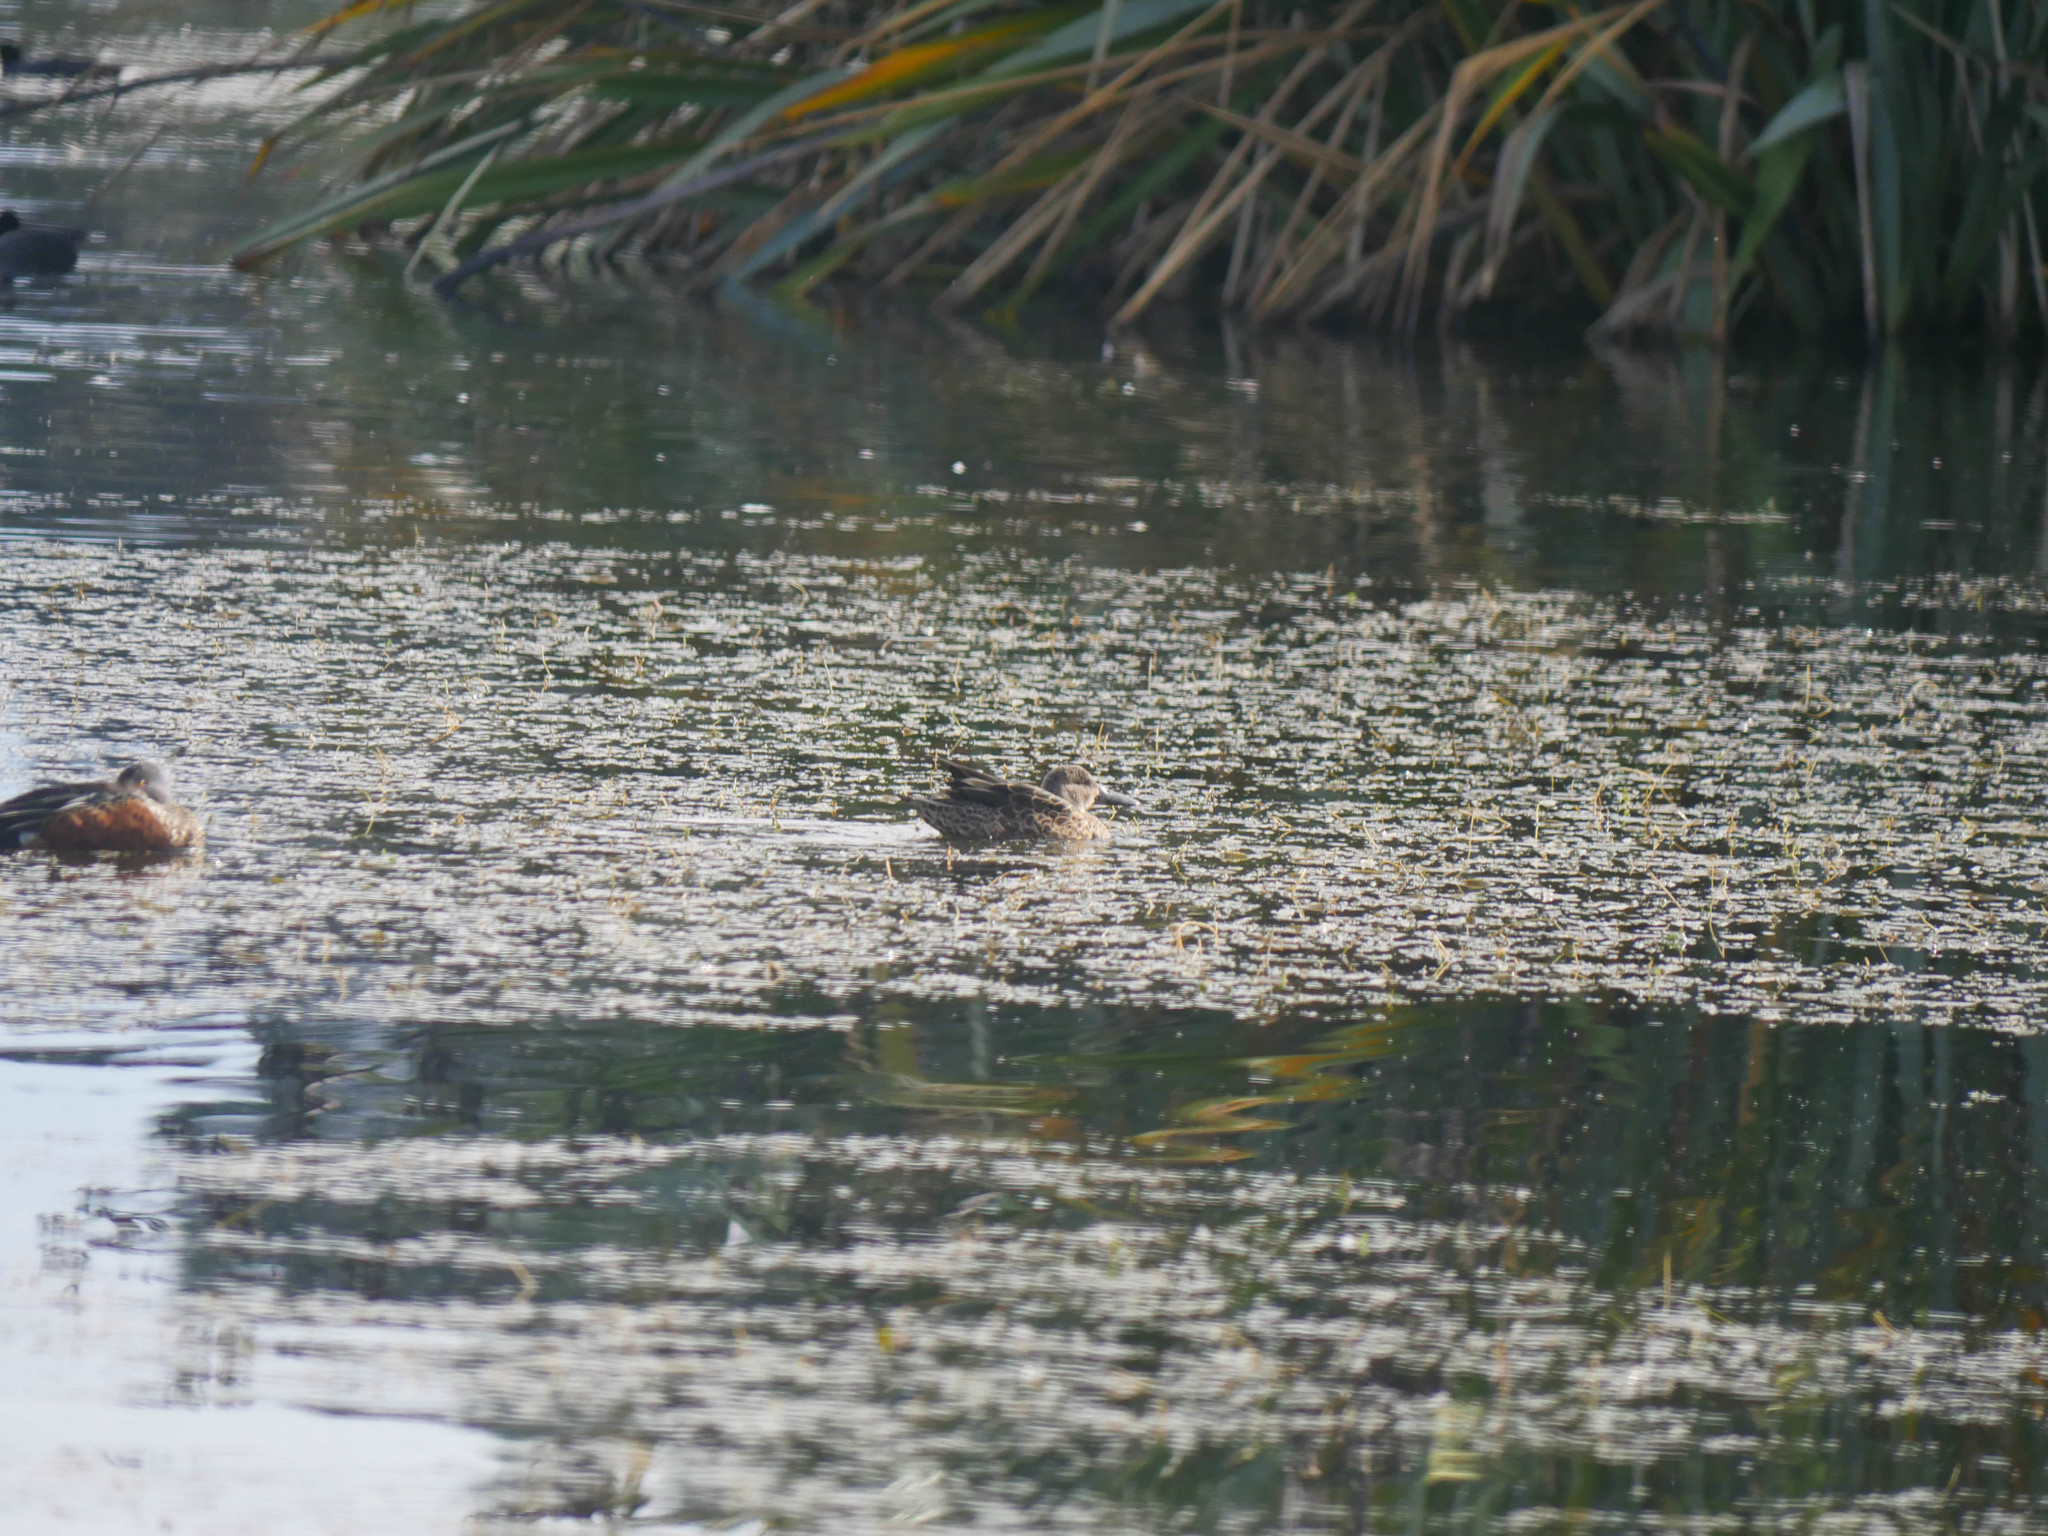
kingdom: Animalia
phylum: Chordata
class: Aves
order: Anseriformes
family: Anatidae
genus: Spatula
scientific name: Spatula rhynchotis
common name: Australian shoveler
